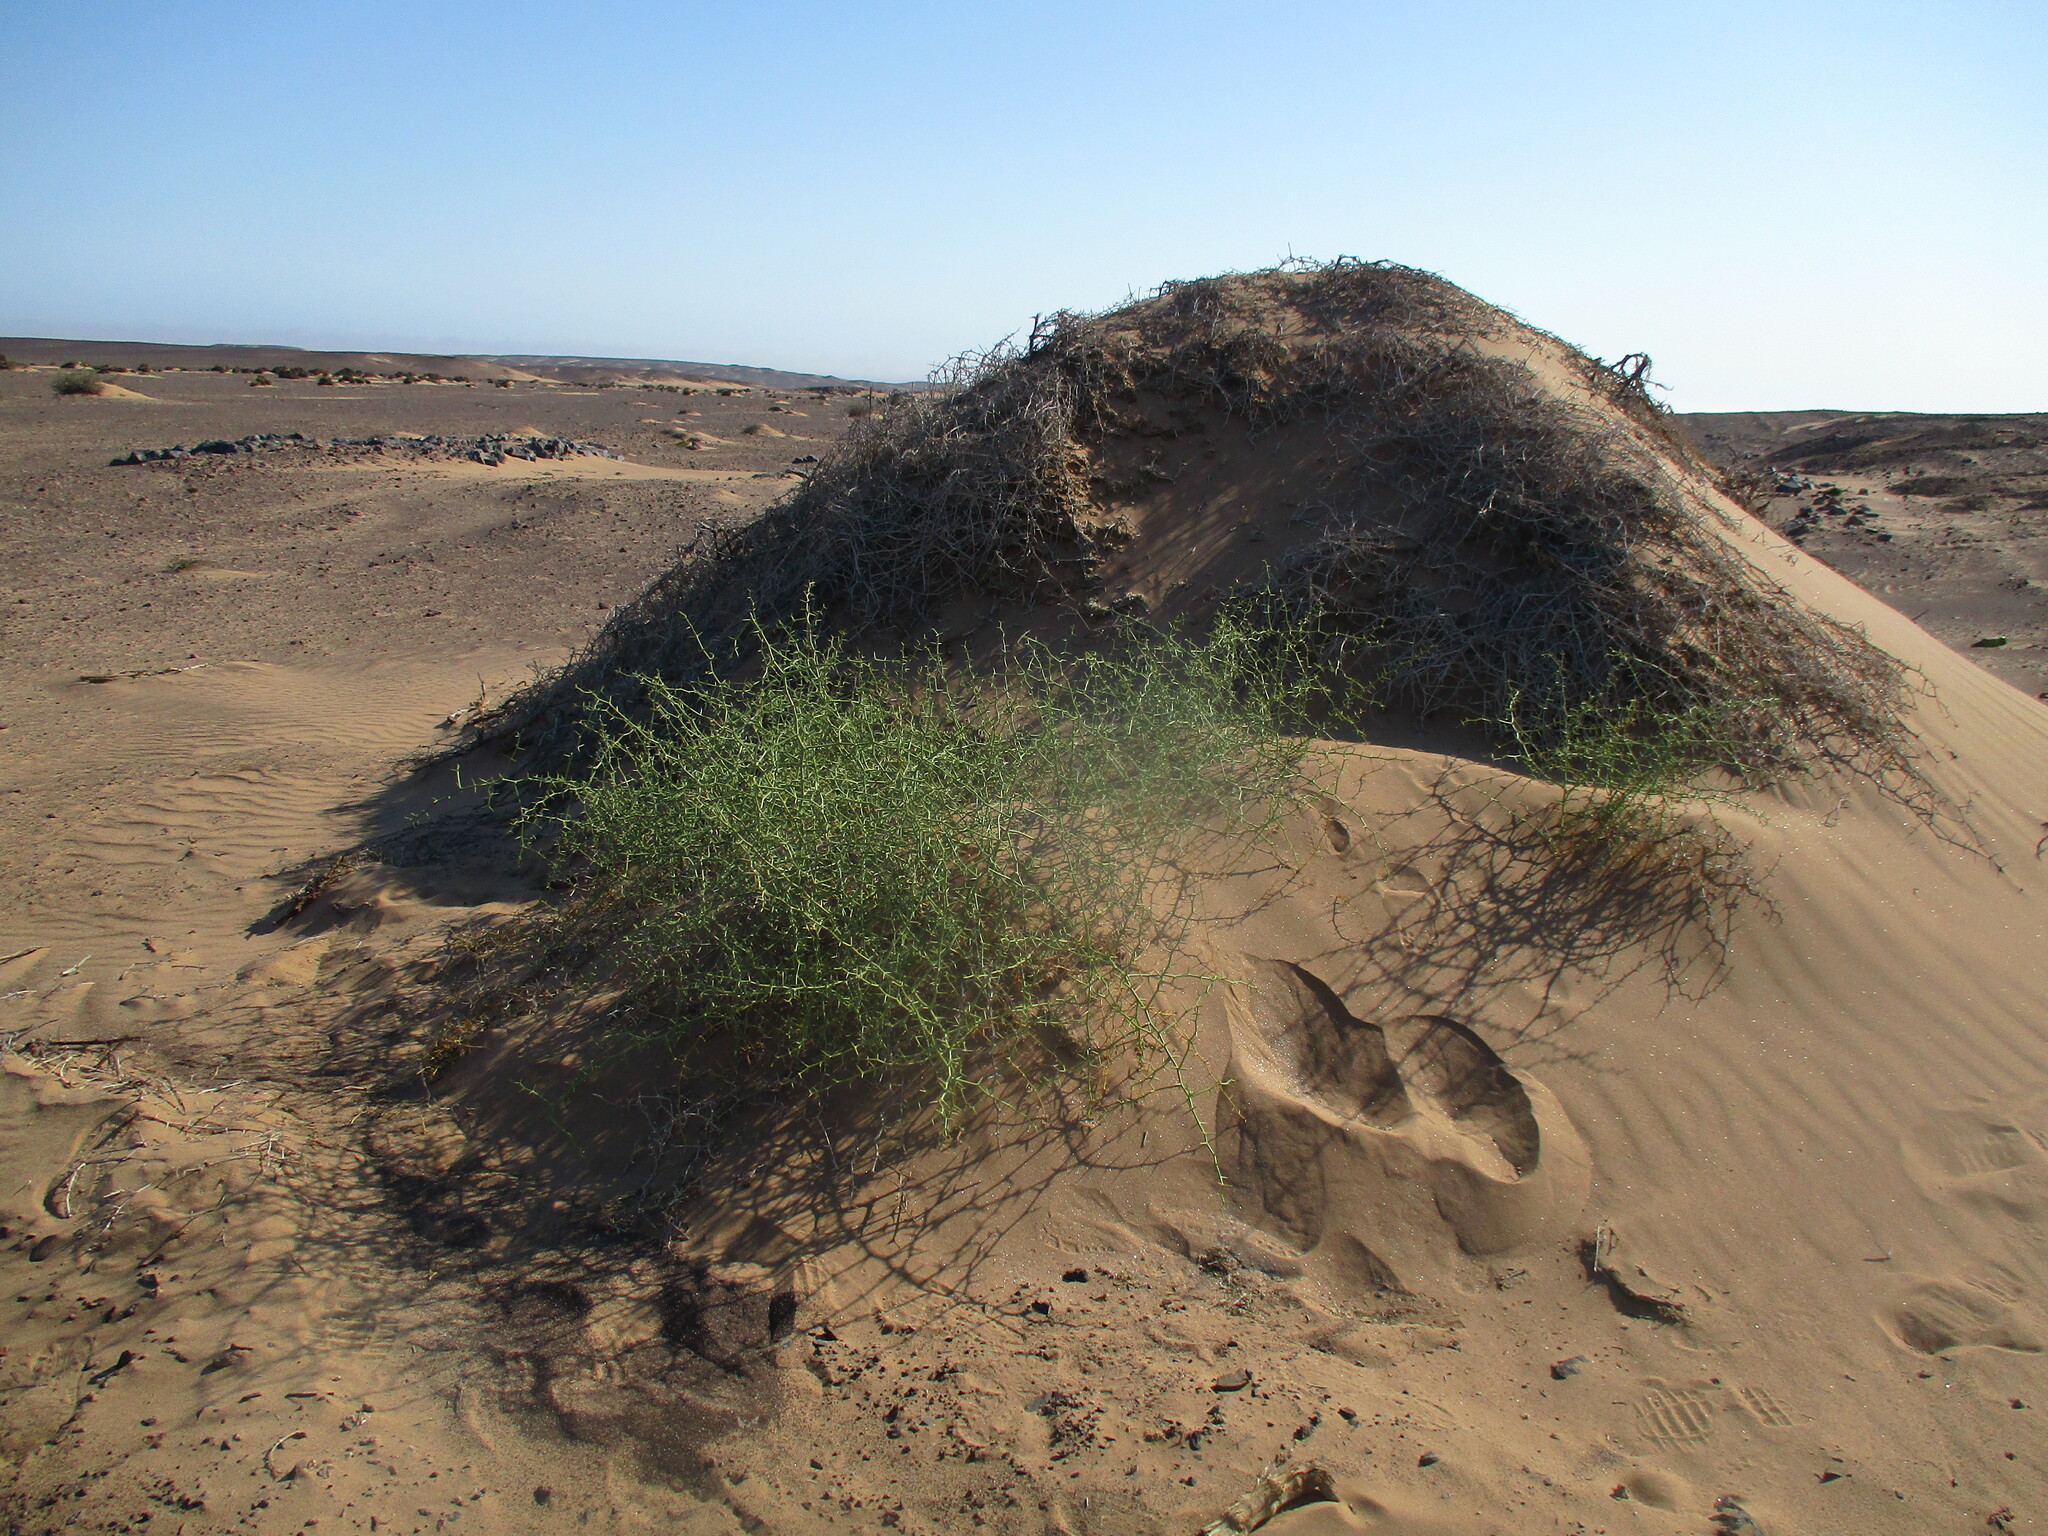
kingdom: Plantae
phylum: Tracheophyta
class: Magnoliopsida
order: Cucurbitales
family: Cucurbitaceae
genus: Acanthosicyos
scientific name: Acanthosicyos horridus
